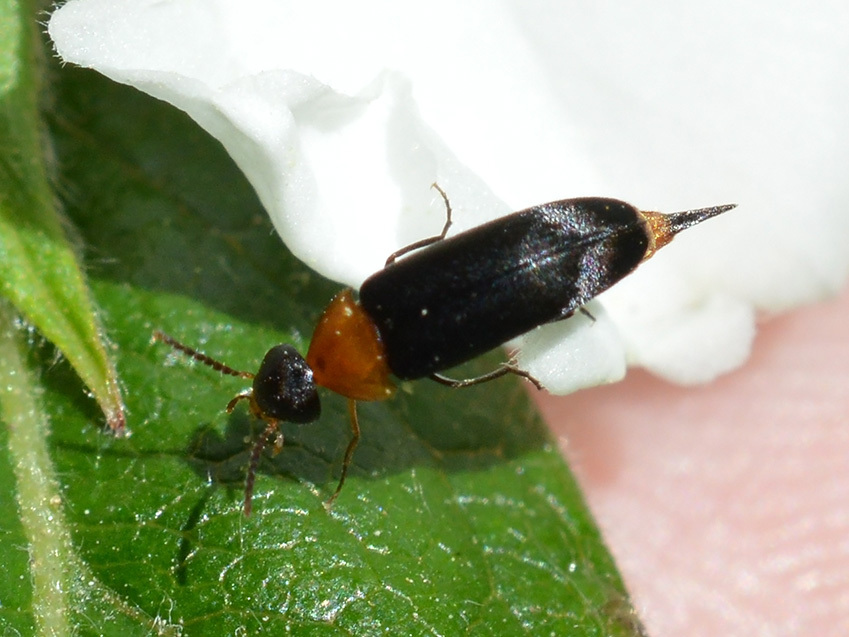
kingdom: Animalia
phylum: Arthropoda
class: Insecta
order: Coleoptera
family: Mordellidae
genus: Mordellochroa
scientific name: Mordellochroa abdominalis
